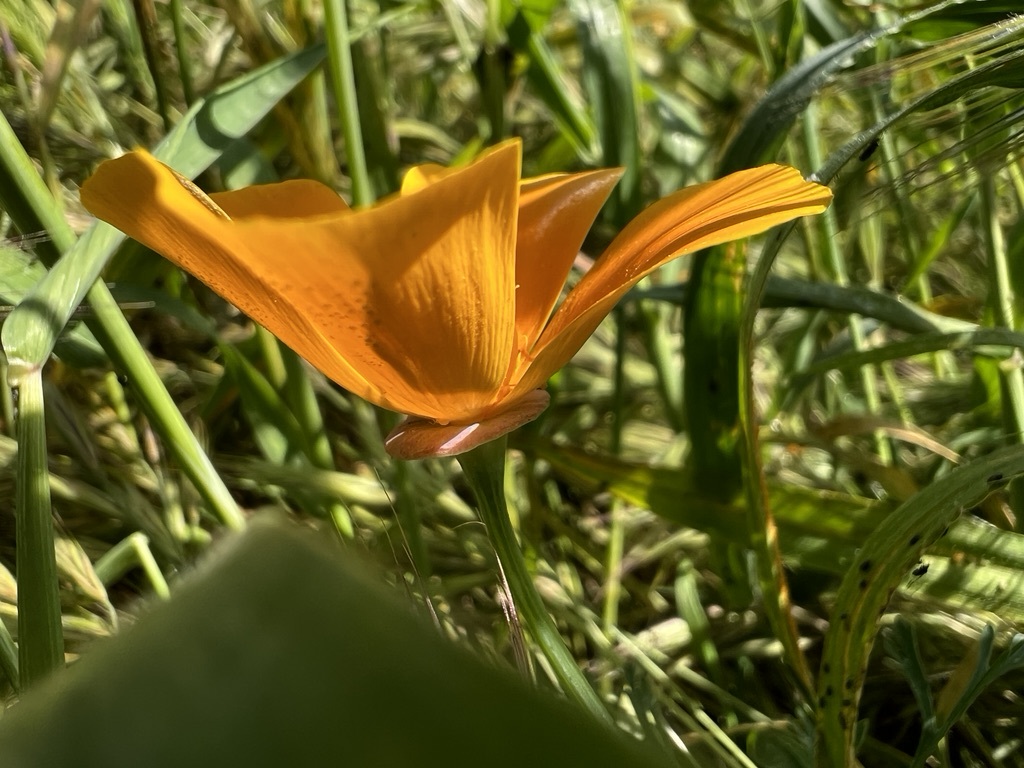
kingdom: Plantae
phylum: Tracheophyta
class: Magnoliopsida
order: Ranunculales
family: Papaveraceae
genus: Eschscholzia
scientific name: Eschscholzia californica
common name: California poppy
